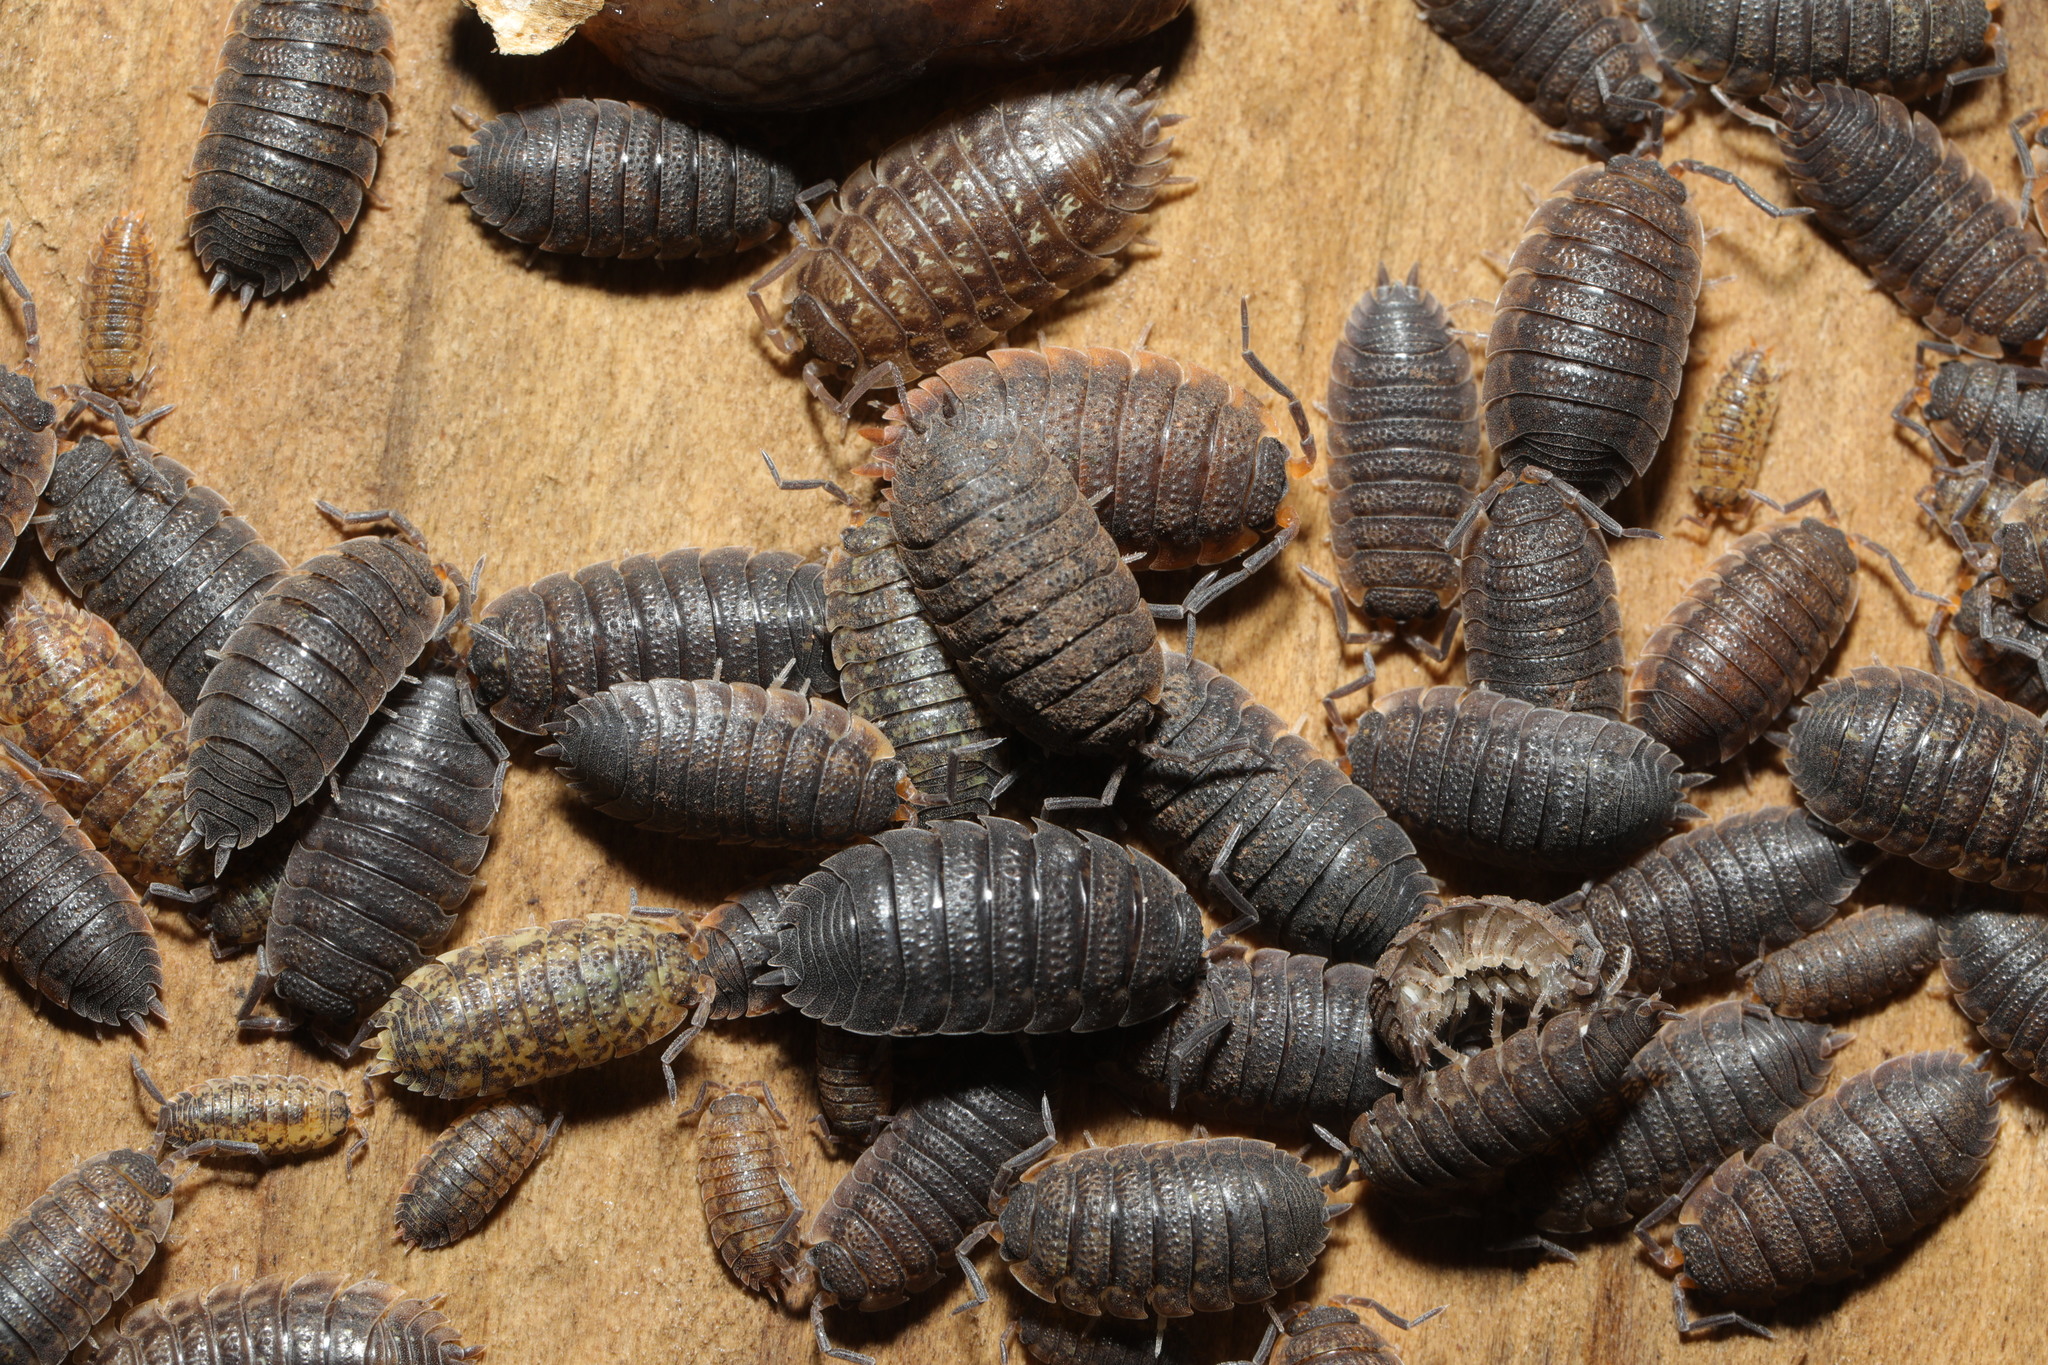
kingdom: Animalia
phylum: Arthropoda
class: Malacostraca
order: Isopoda
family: Porcellionidae
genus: Porcellio
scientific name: Porcellio scaber
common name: Common rough woodlouse
